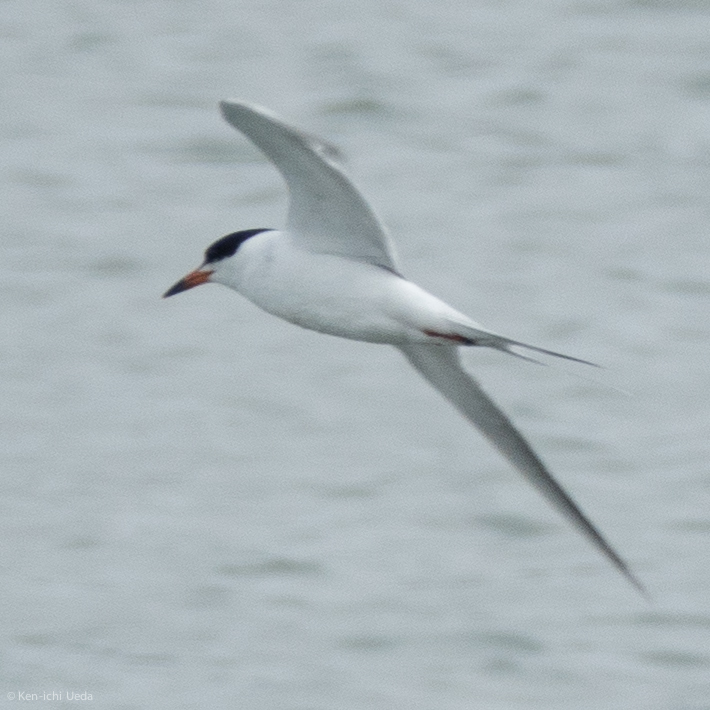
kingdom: Animalia
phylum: Chordata
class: Aves
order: Charadriiformes
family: Laridae
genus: Sterna
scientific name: Sterna forsteri
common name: Forster's tern
